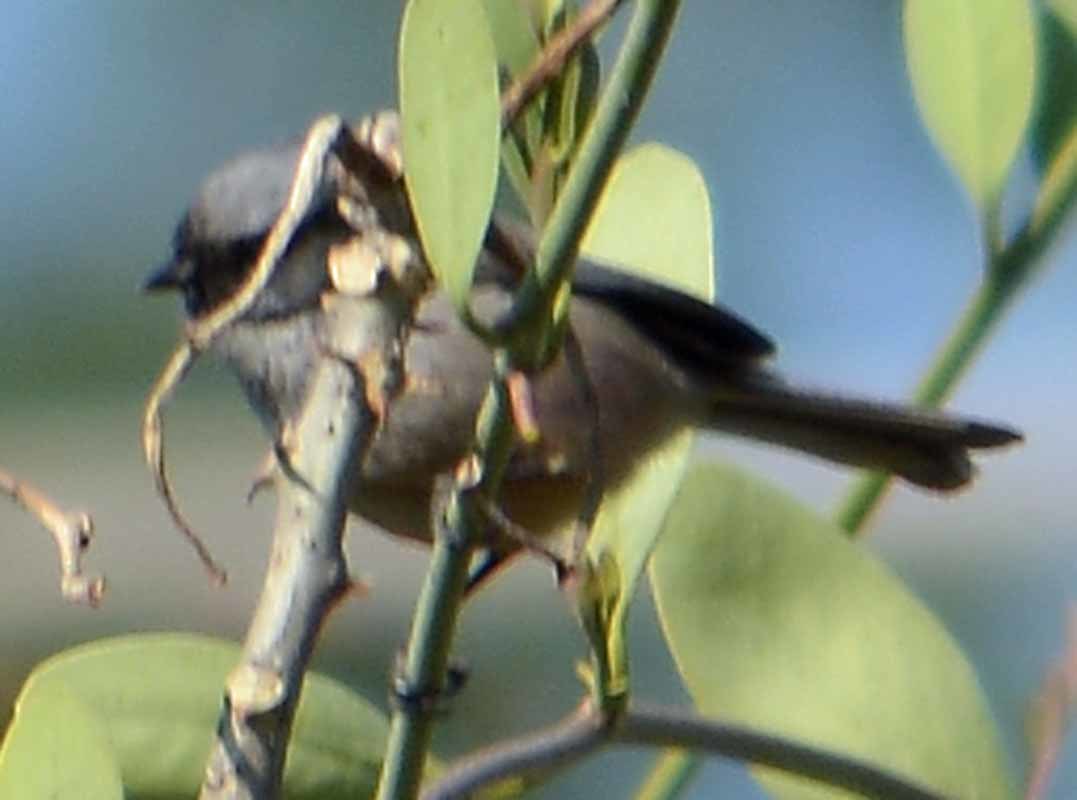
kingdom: Animalia
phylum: Chordata
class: Aves
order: Passeriformes
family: Aegithalidae
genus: Psaltriparus
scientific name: Psaltriparus minimus
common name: American bushtit
